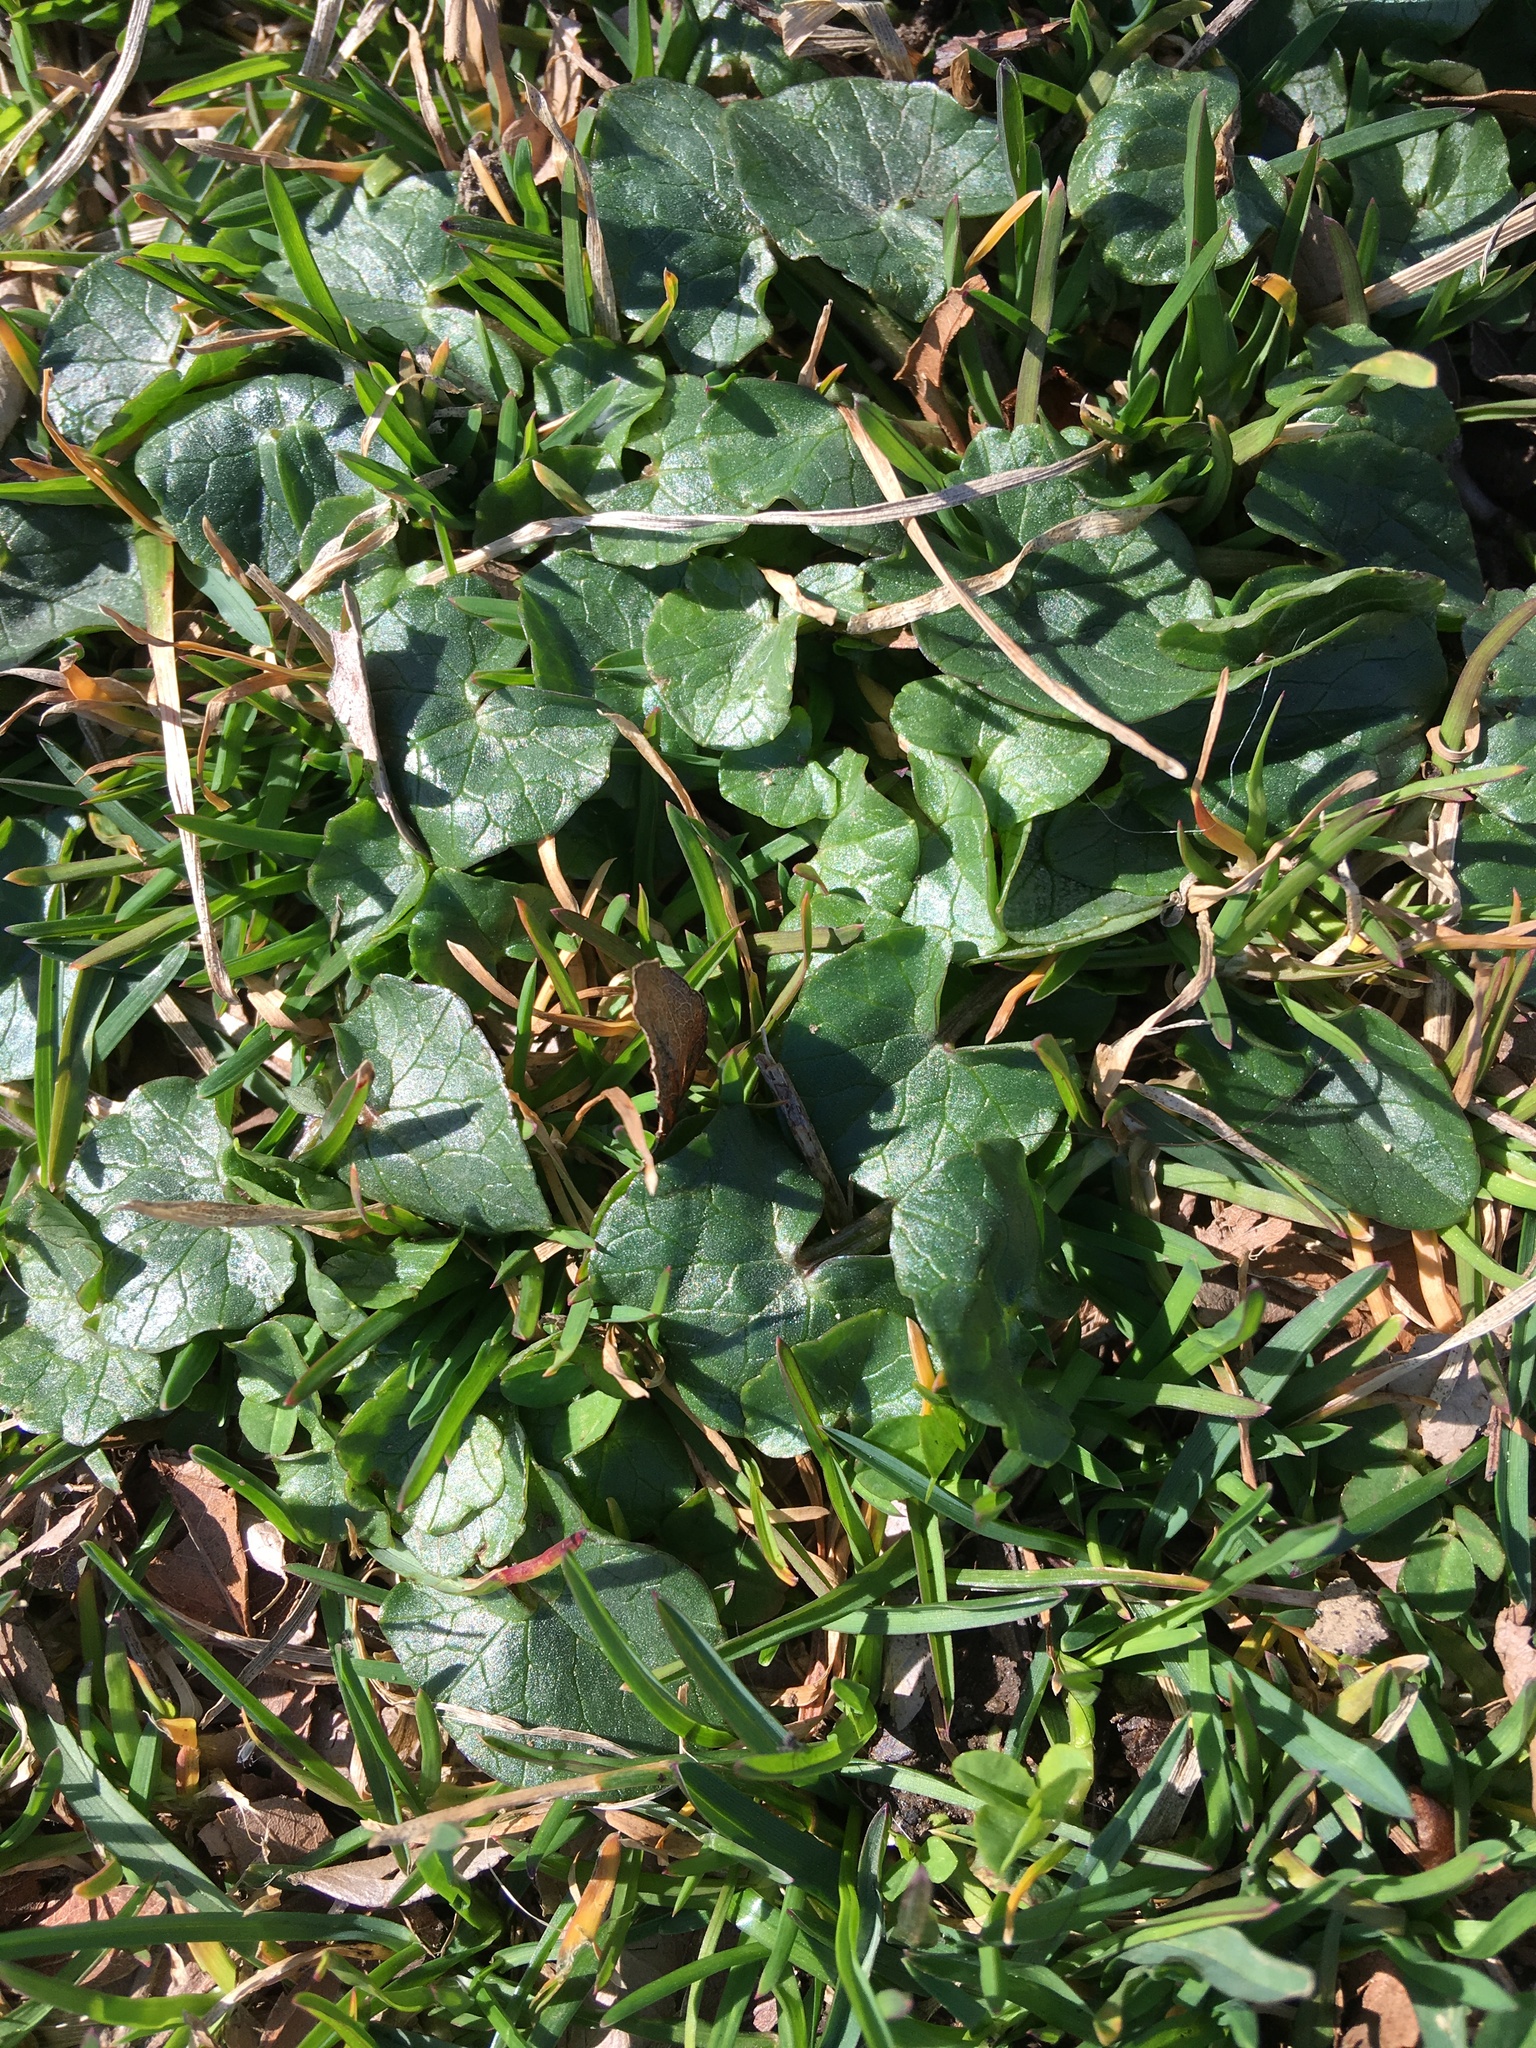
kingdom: Plantae
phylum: Tracheophyta
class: Magnoliopsida
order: Ranunculales
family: Ranunculaceae
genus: Ficaria
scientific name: Ficaria verna
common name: Lesser celandine
